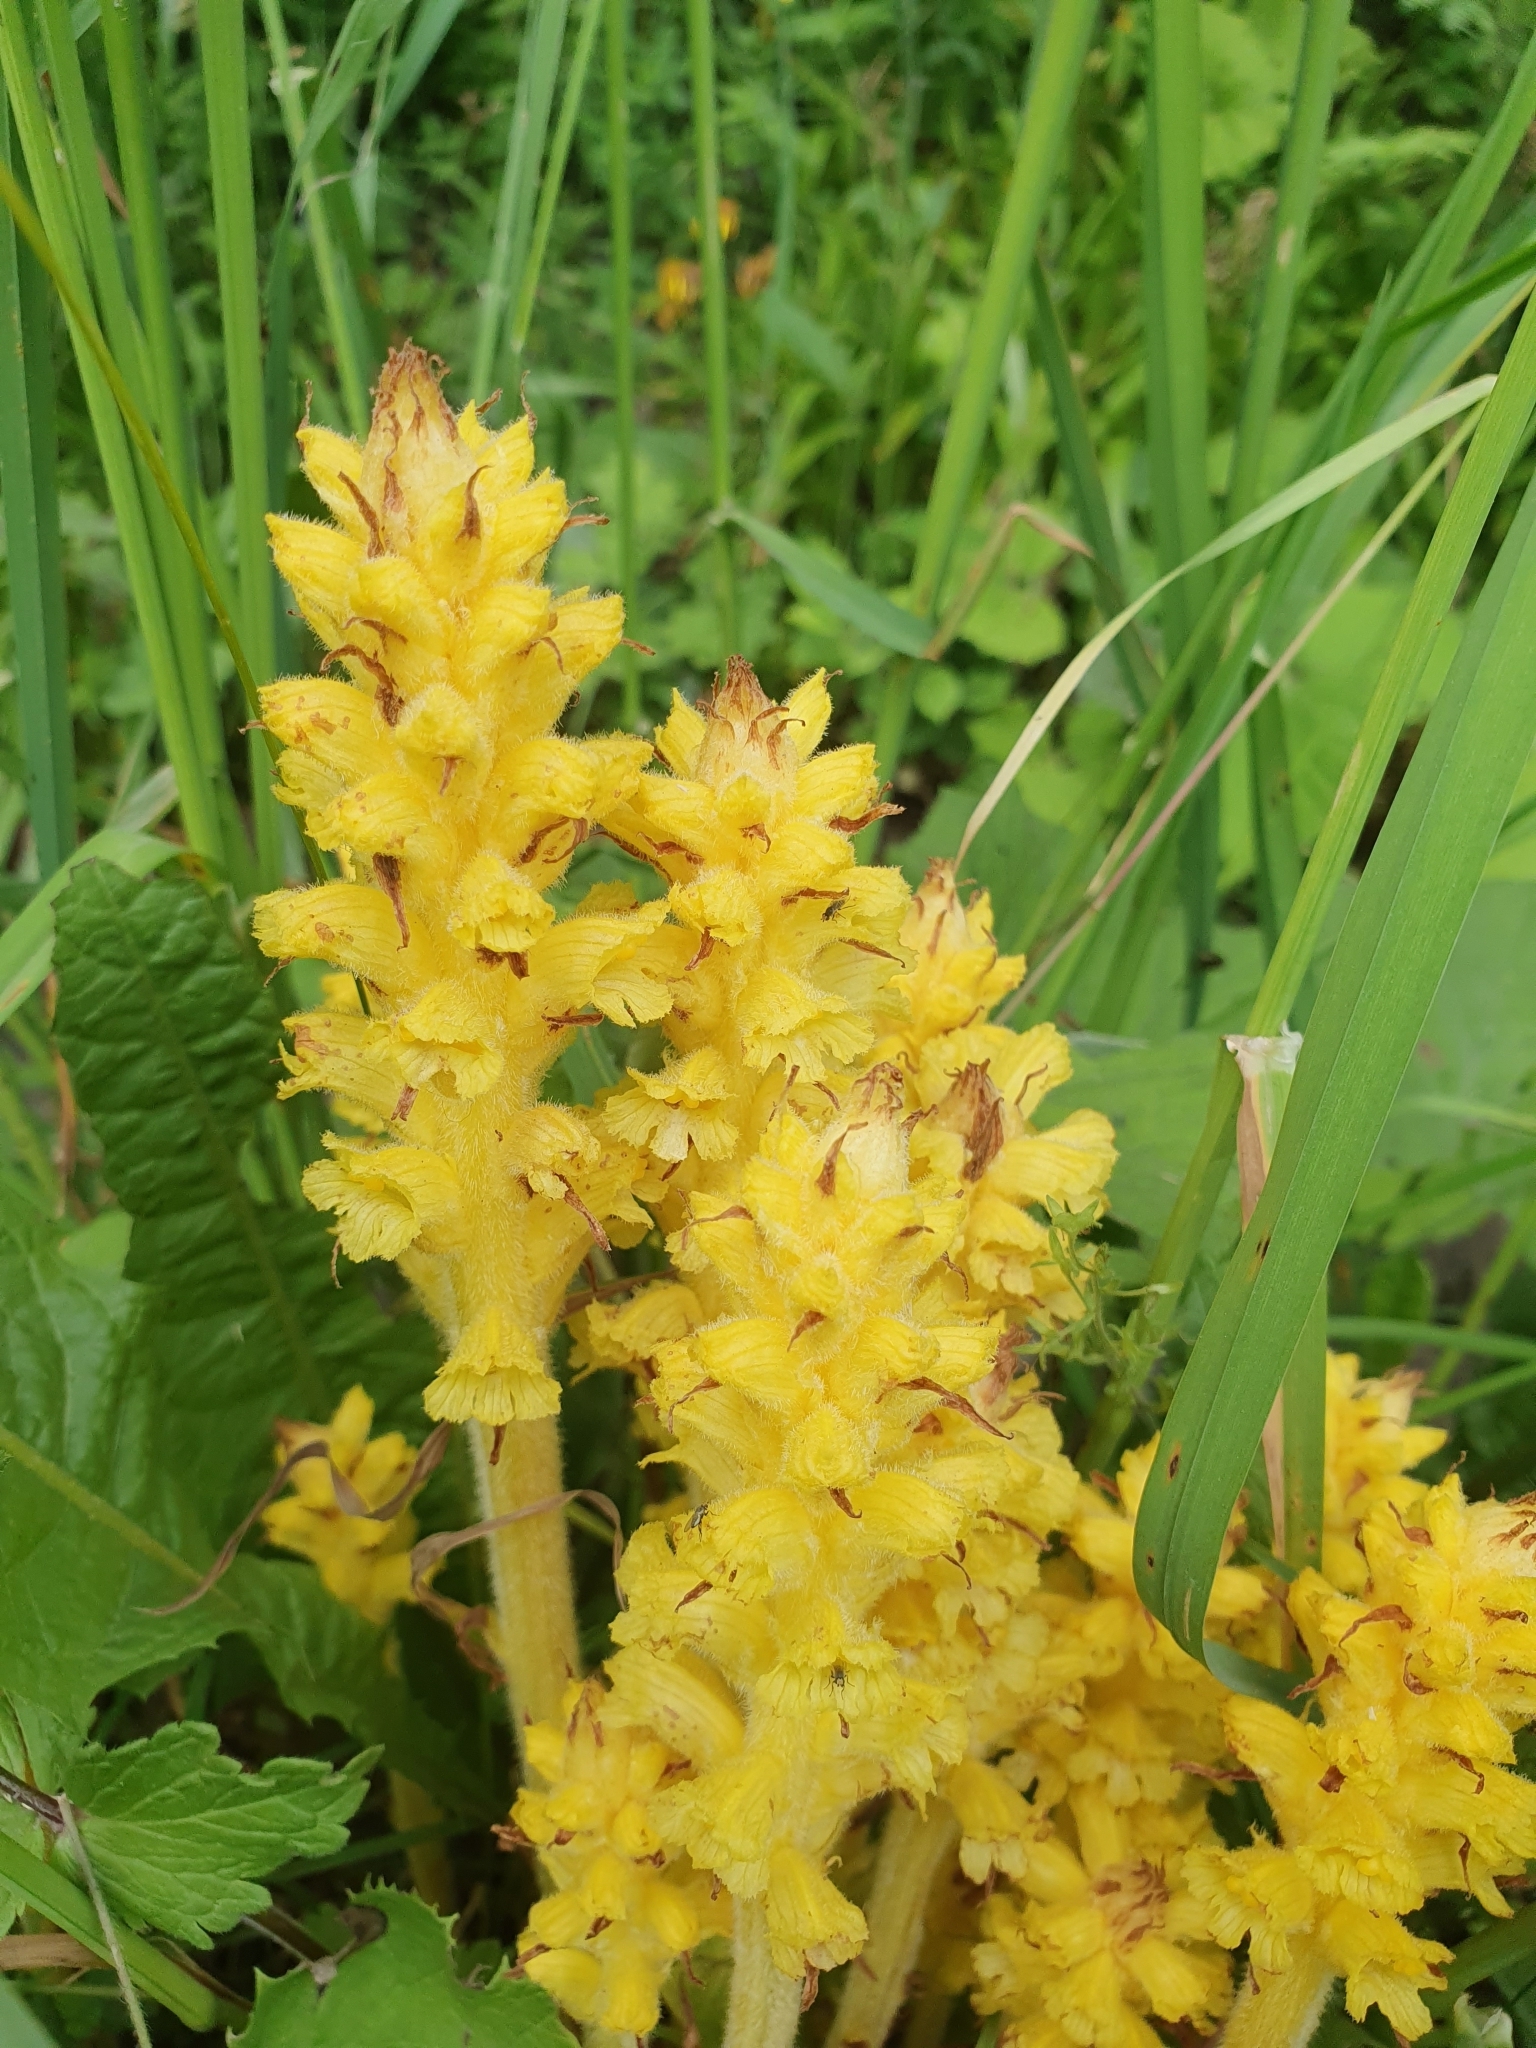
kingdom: Plantae
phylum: Tracheophyta
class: Magnoliopsida
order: Lamiales
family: Orobanchaceae
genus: Orobanche
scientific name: Orobanche flava
